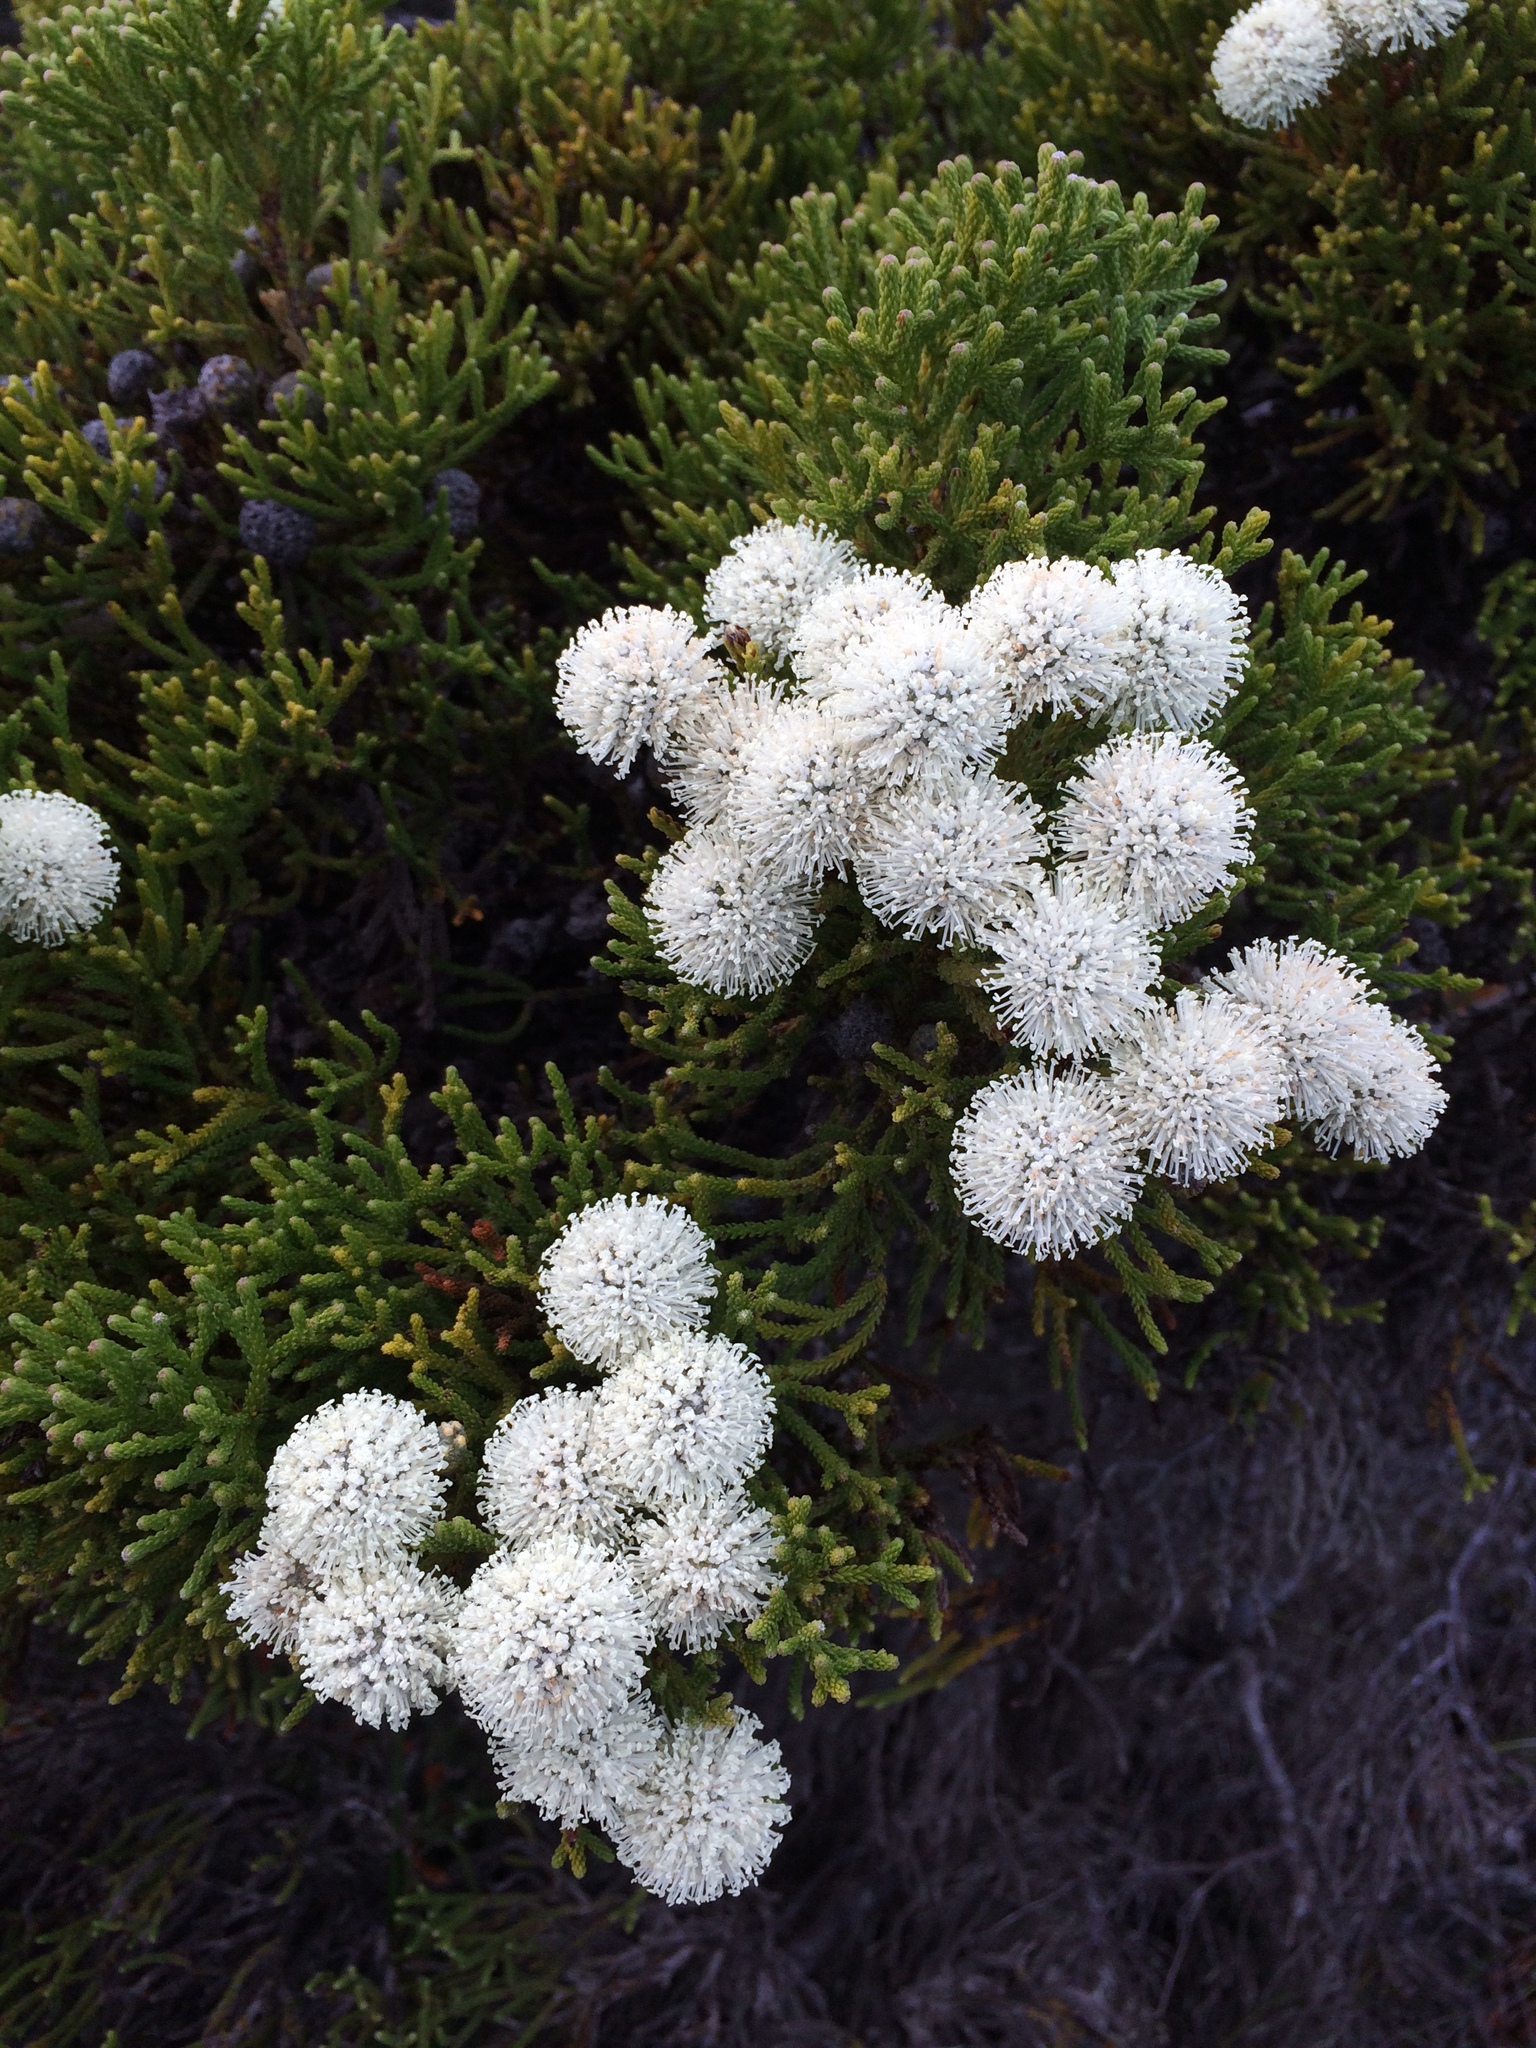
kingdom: Plantae
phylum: Tracheophyta
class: Magnoliopsida
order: Bruniales
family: Bruniaceae
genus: Brunia
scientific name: Brunia noduliflora
